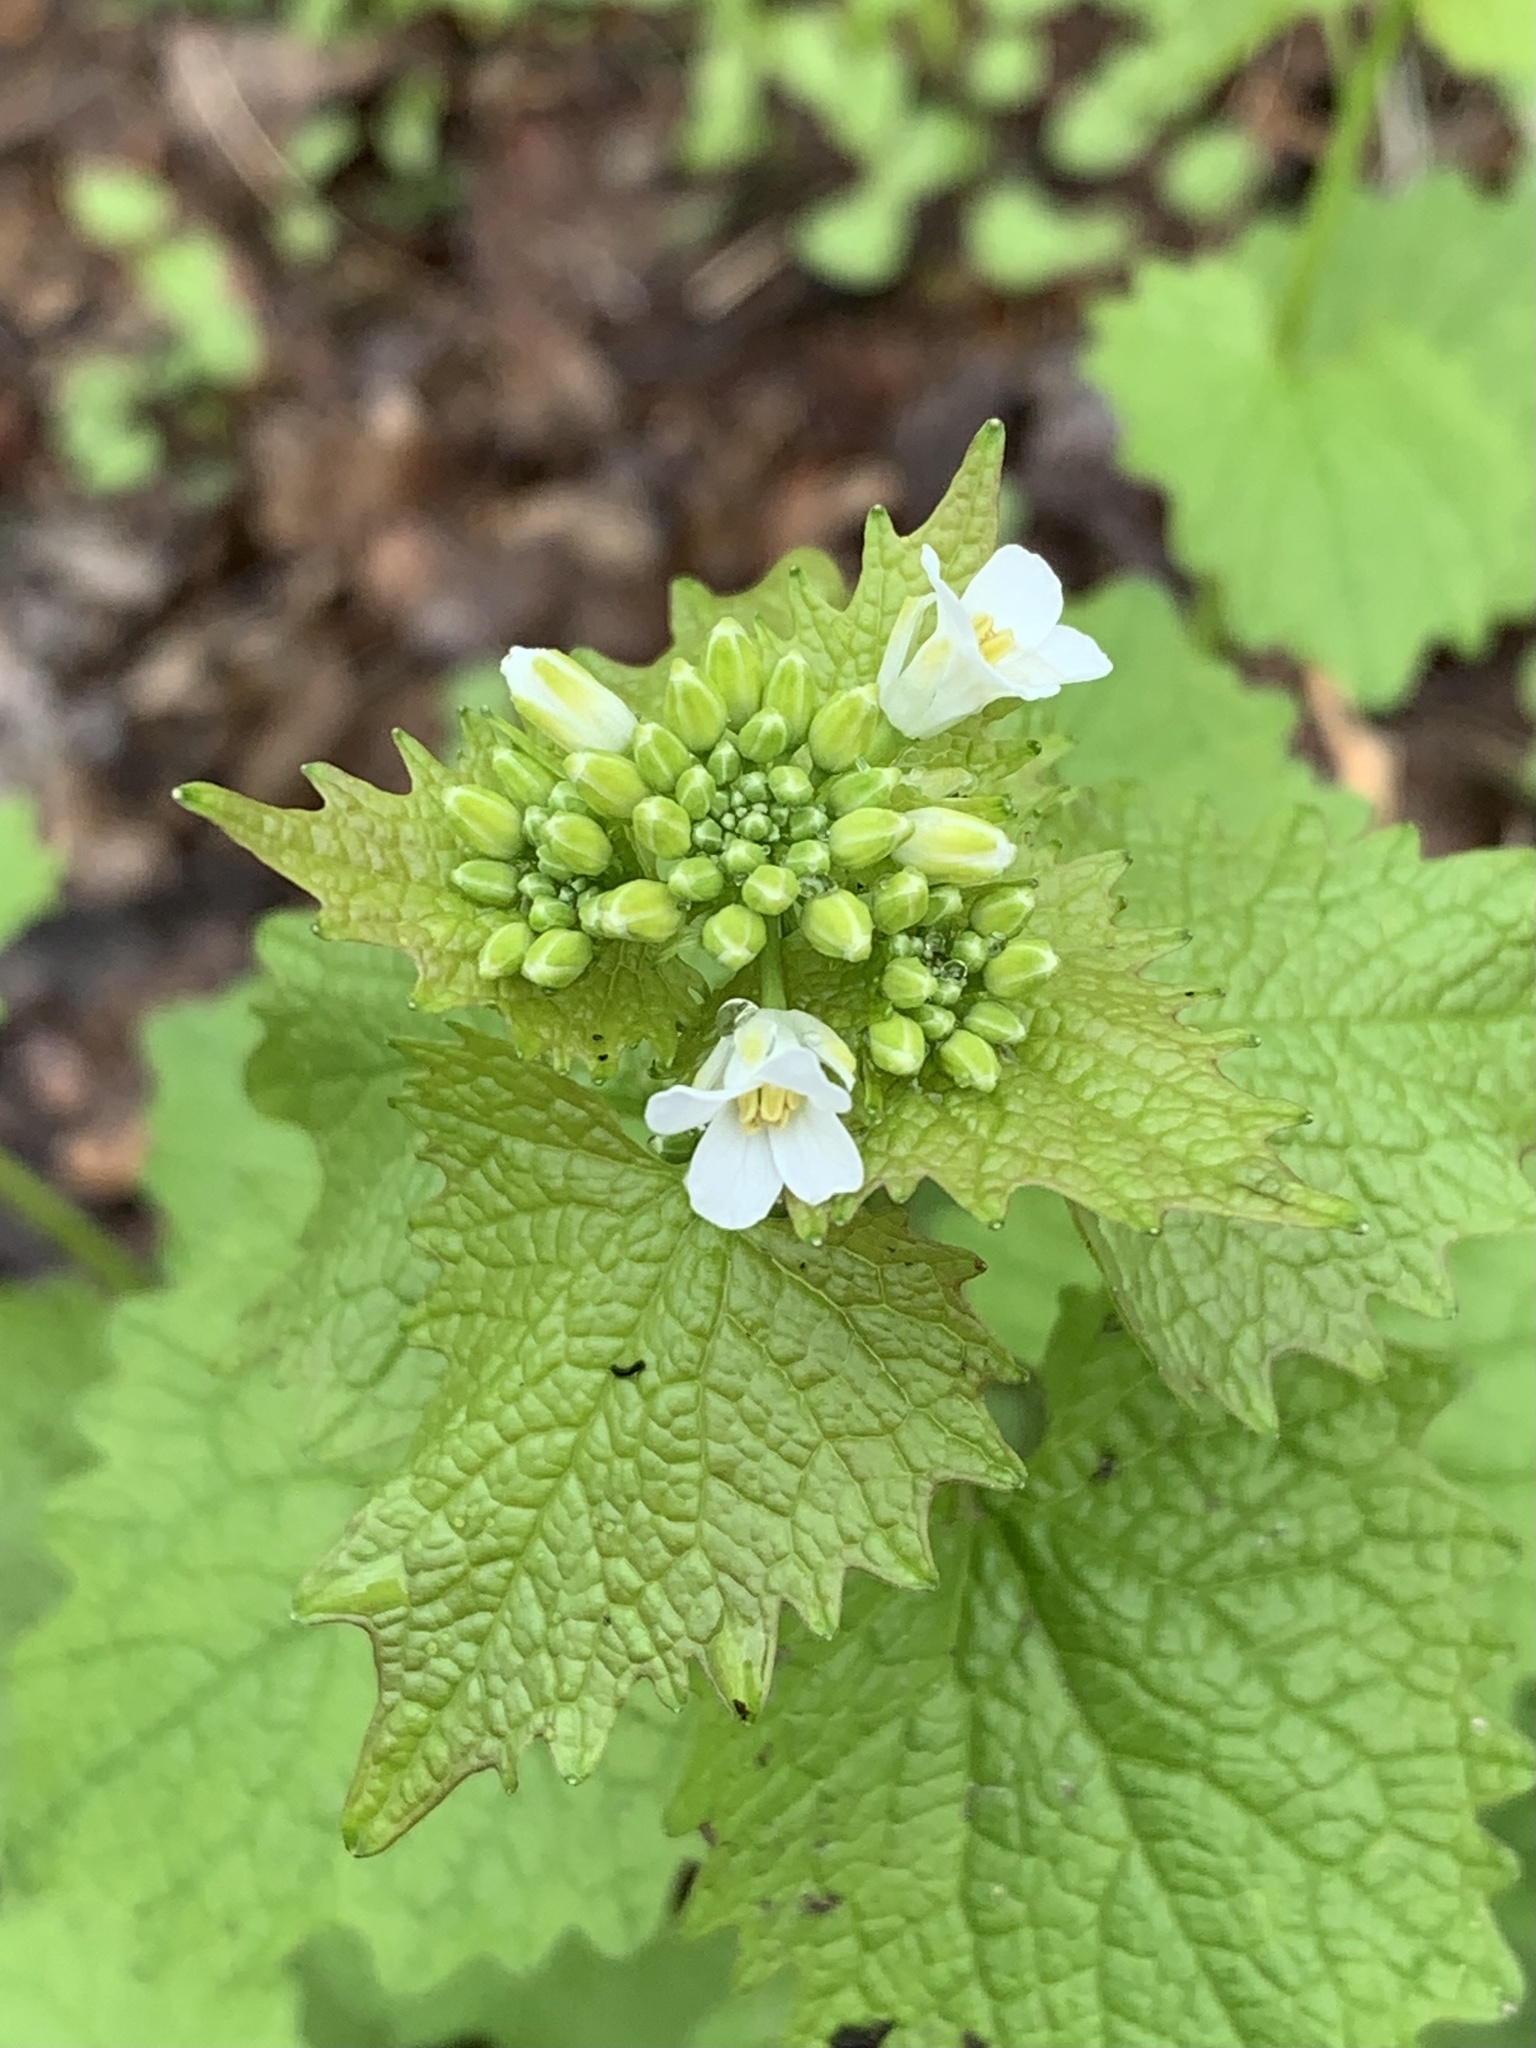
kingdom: Plantae
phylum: Tracheophyta
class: Magnoliopsida
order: Brassicales
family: Brassicaceae
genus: Alliaria
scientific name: Alliaria petiolata
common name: Garlic mustard
